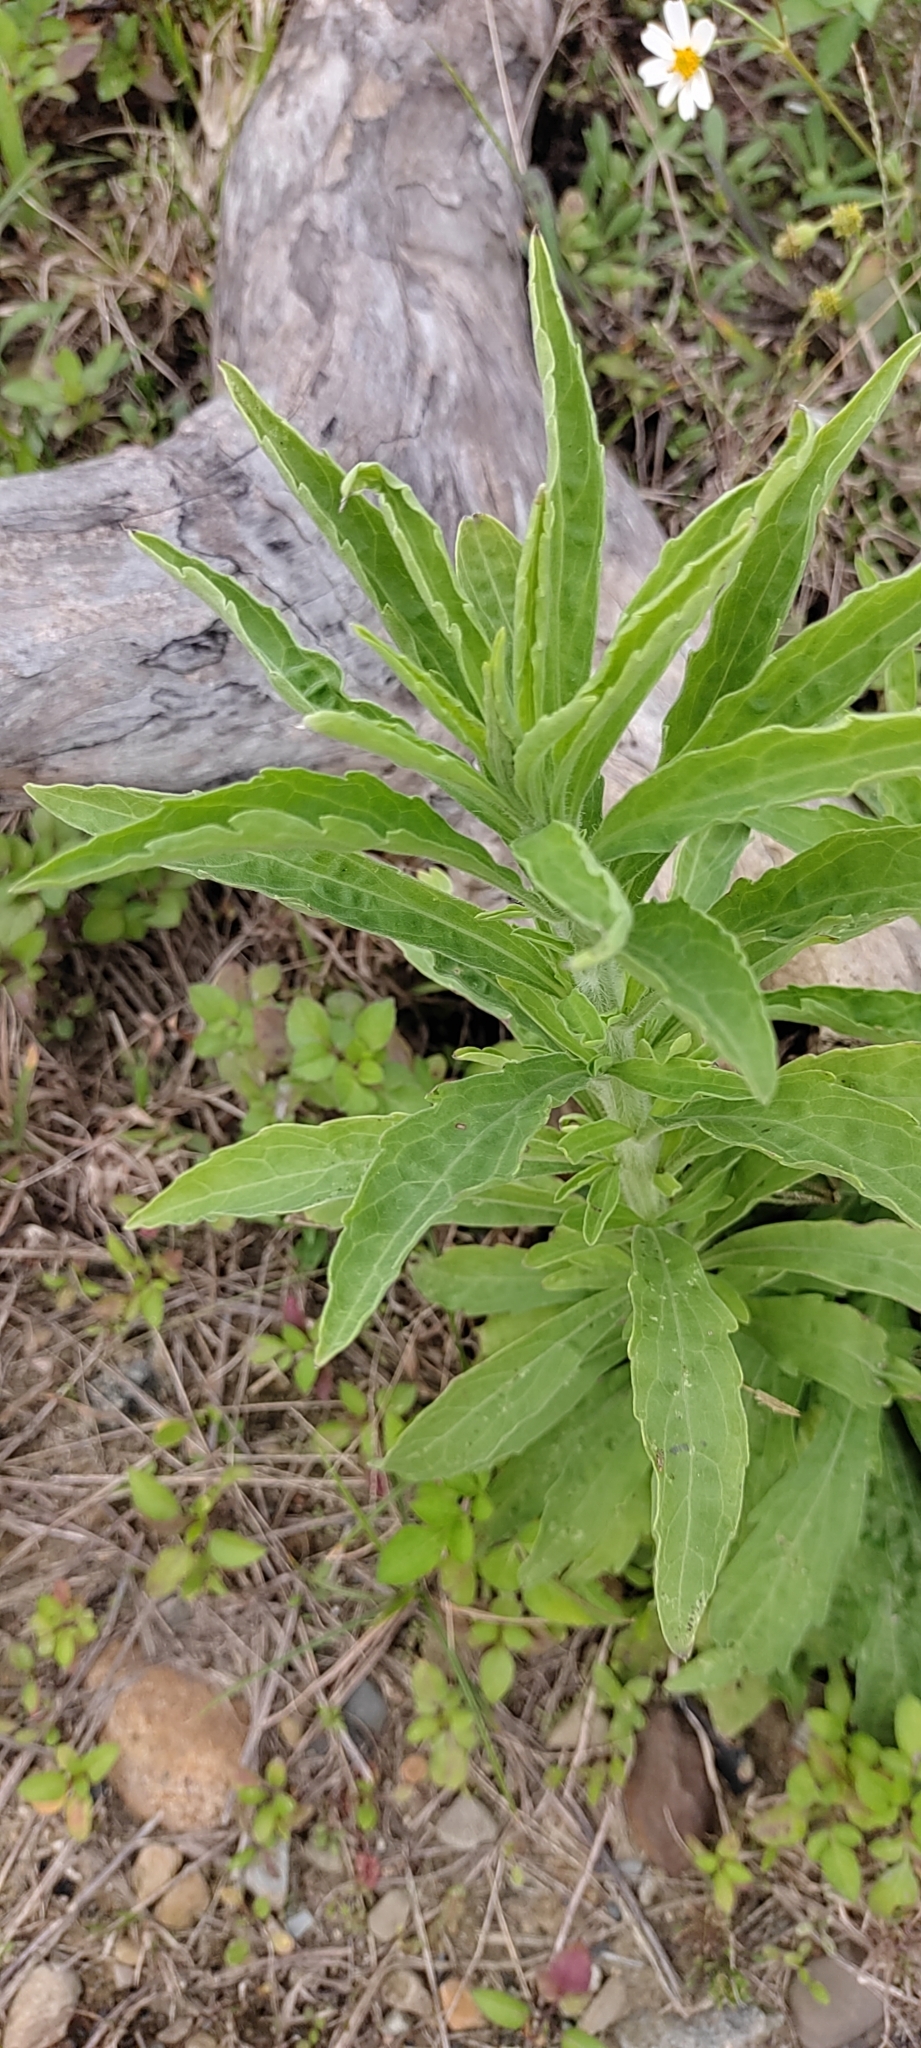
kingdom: Plantae
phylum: Tracheophyta
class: Magnoliopsida
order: Asterales
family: Asteraceae
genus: Erigeron
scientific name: Erigeron sumatrensis
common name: Daisy
